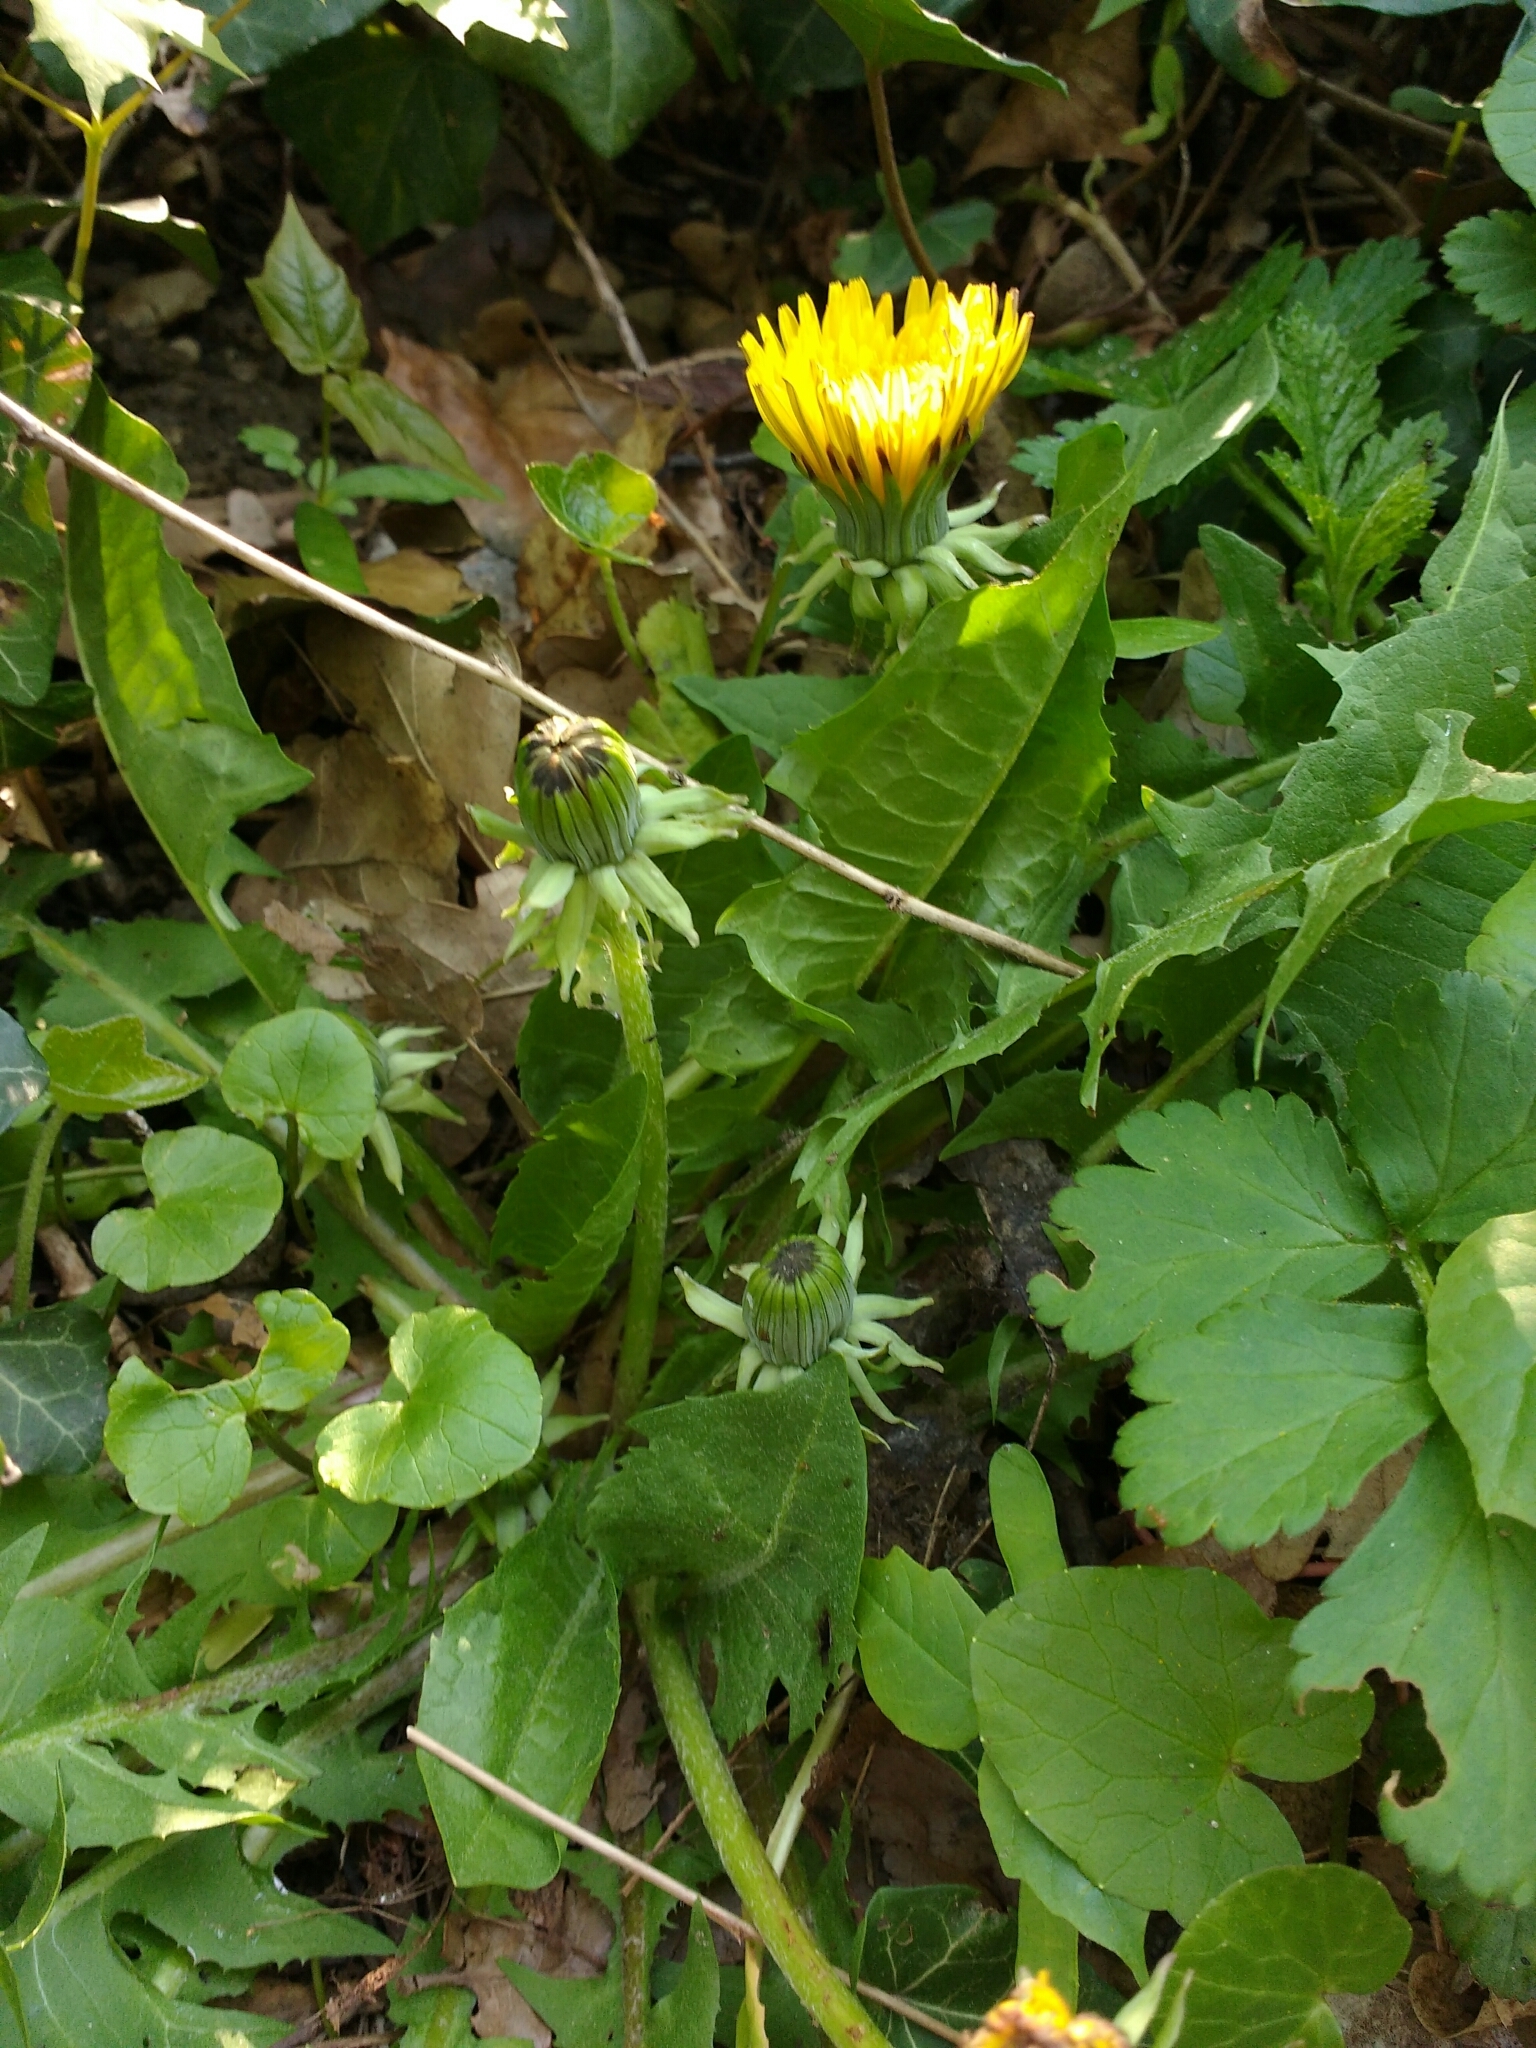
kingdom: Plantae
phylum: Tracheophyta
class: Magnoliopsida
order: Asterales
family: Asteraceae
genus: Taraxacum
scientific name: Taraxacum officinale
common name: Common dandelion
